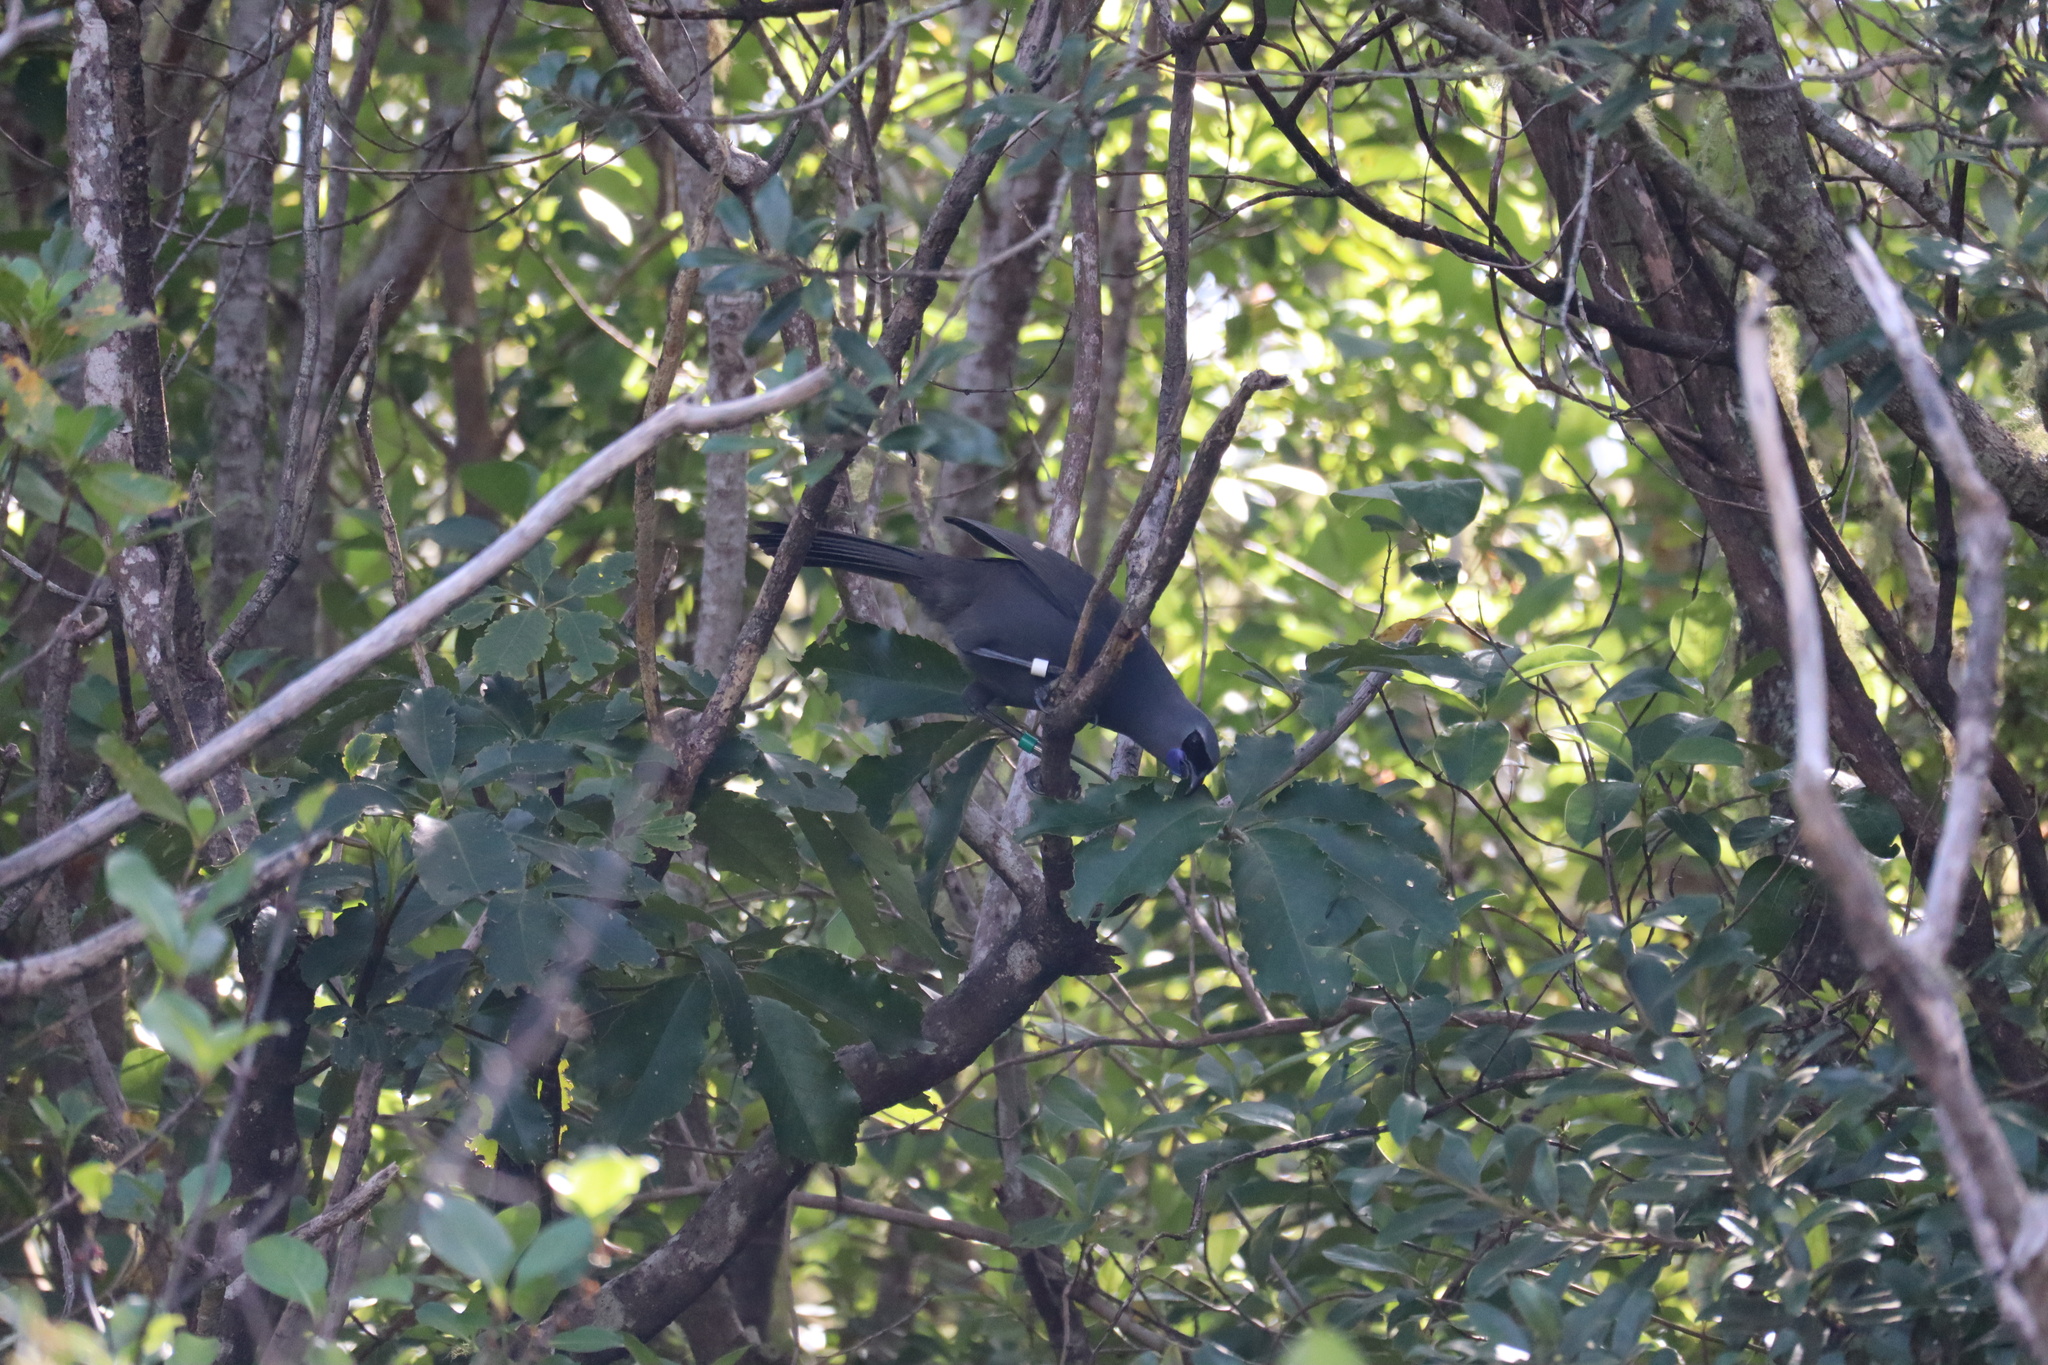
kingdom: Animalia
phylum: Chordata
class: Aves
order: Passeriformes
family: Callaeatidae
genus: Callaeas
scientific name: Callaeas cinereus
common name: South island kokako
